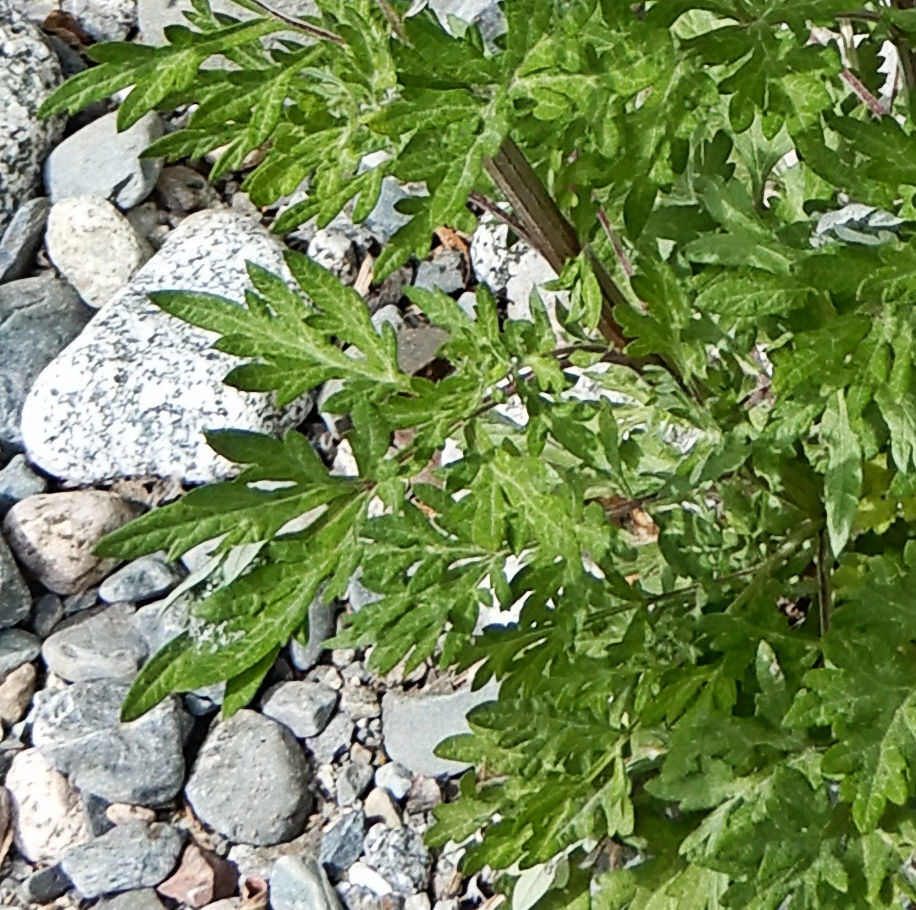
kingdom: Plantae
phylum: Tracheophyta
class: Magnoliopsida
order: Asterales
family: Asteraceae
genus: Artemisia
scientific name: Artemisia vulgaris
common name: Mugwort
